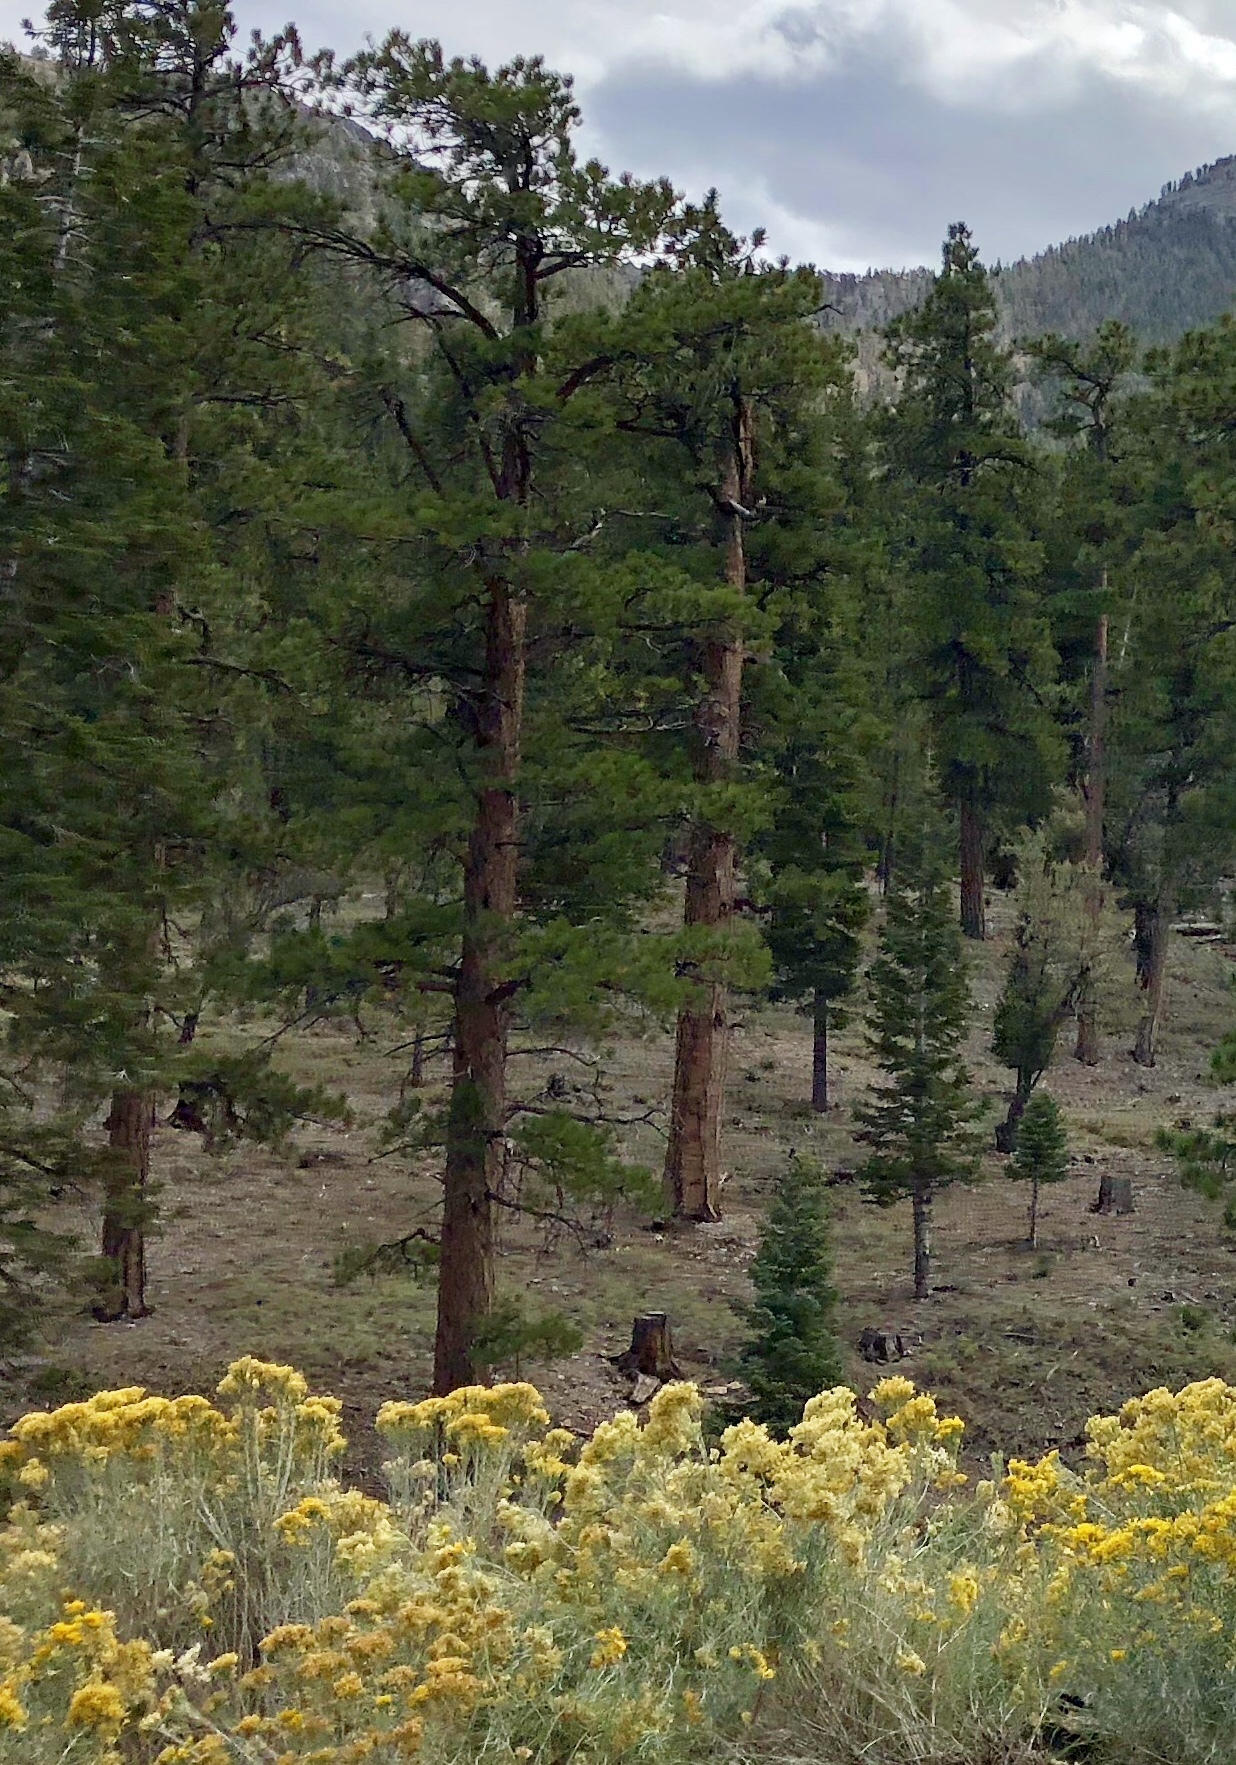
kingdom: Plantae
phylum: Tracheophyta
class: Pinopsida
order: Pinales
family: Pinaceae
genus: Pinus
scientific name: Pinus ponderosa
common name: Western yellow-pine
